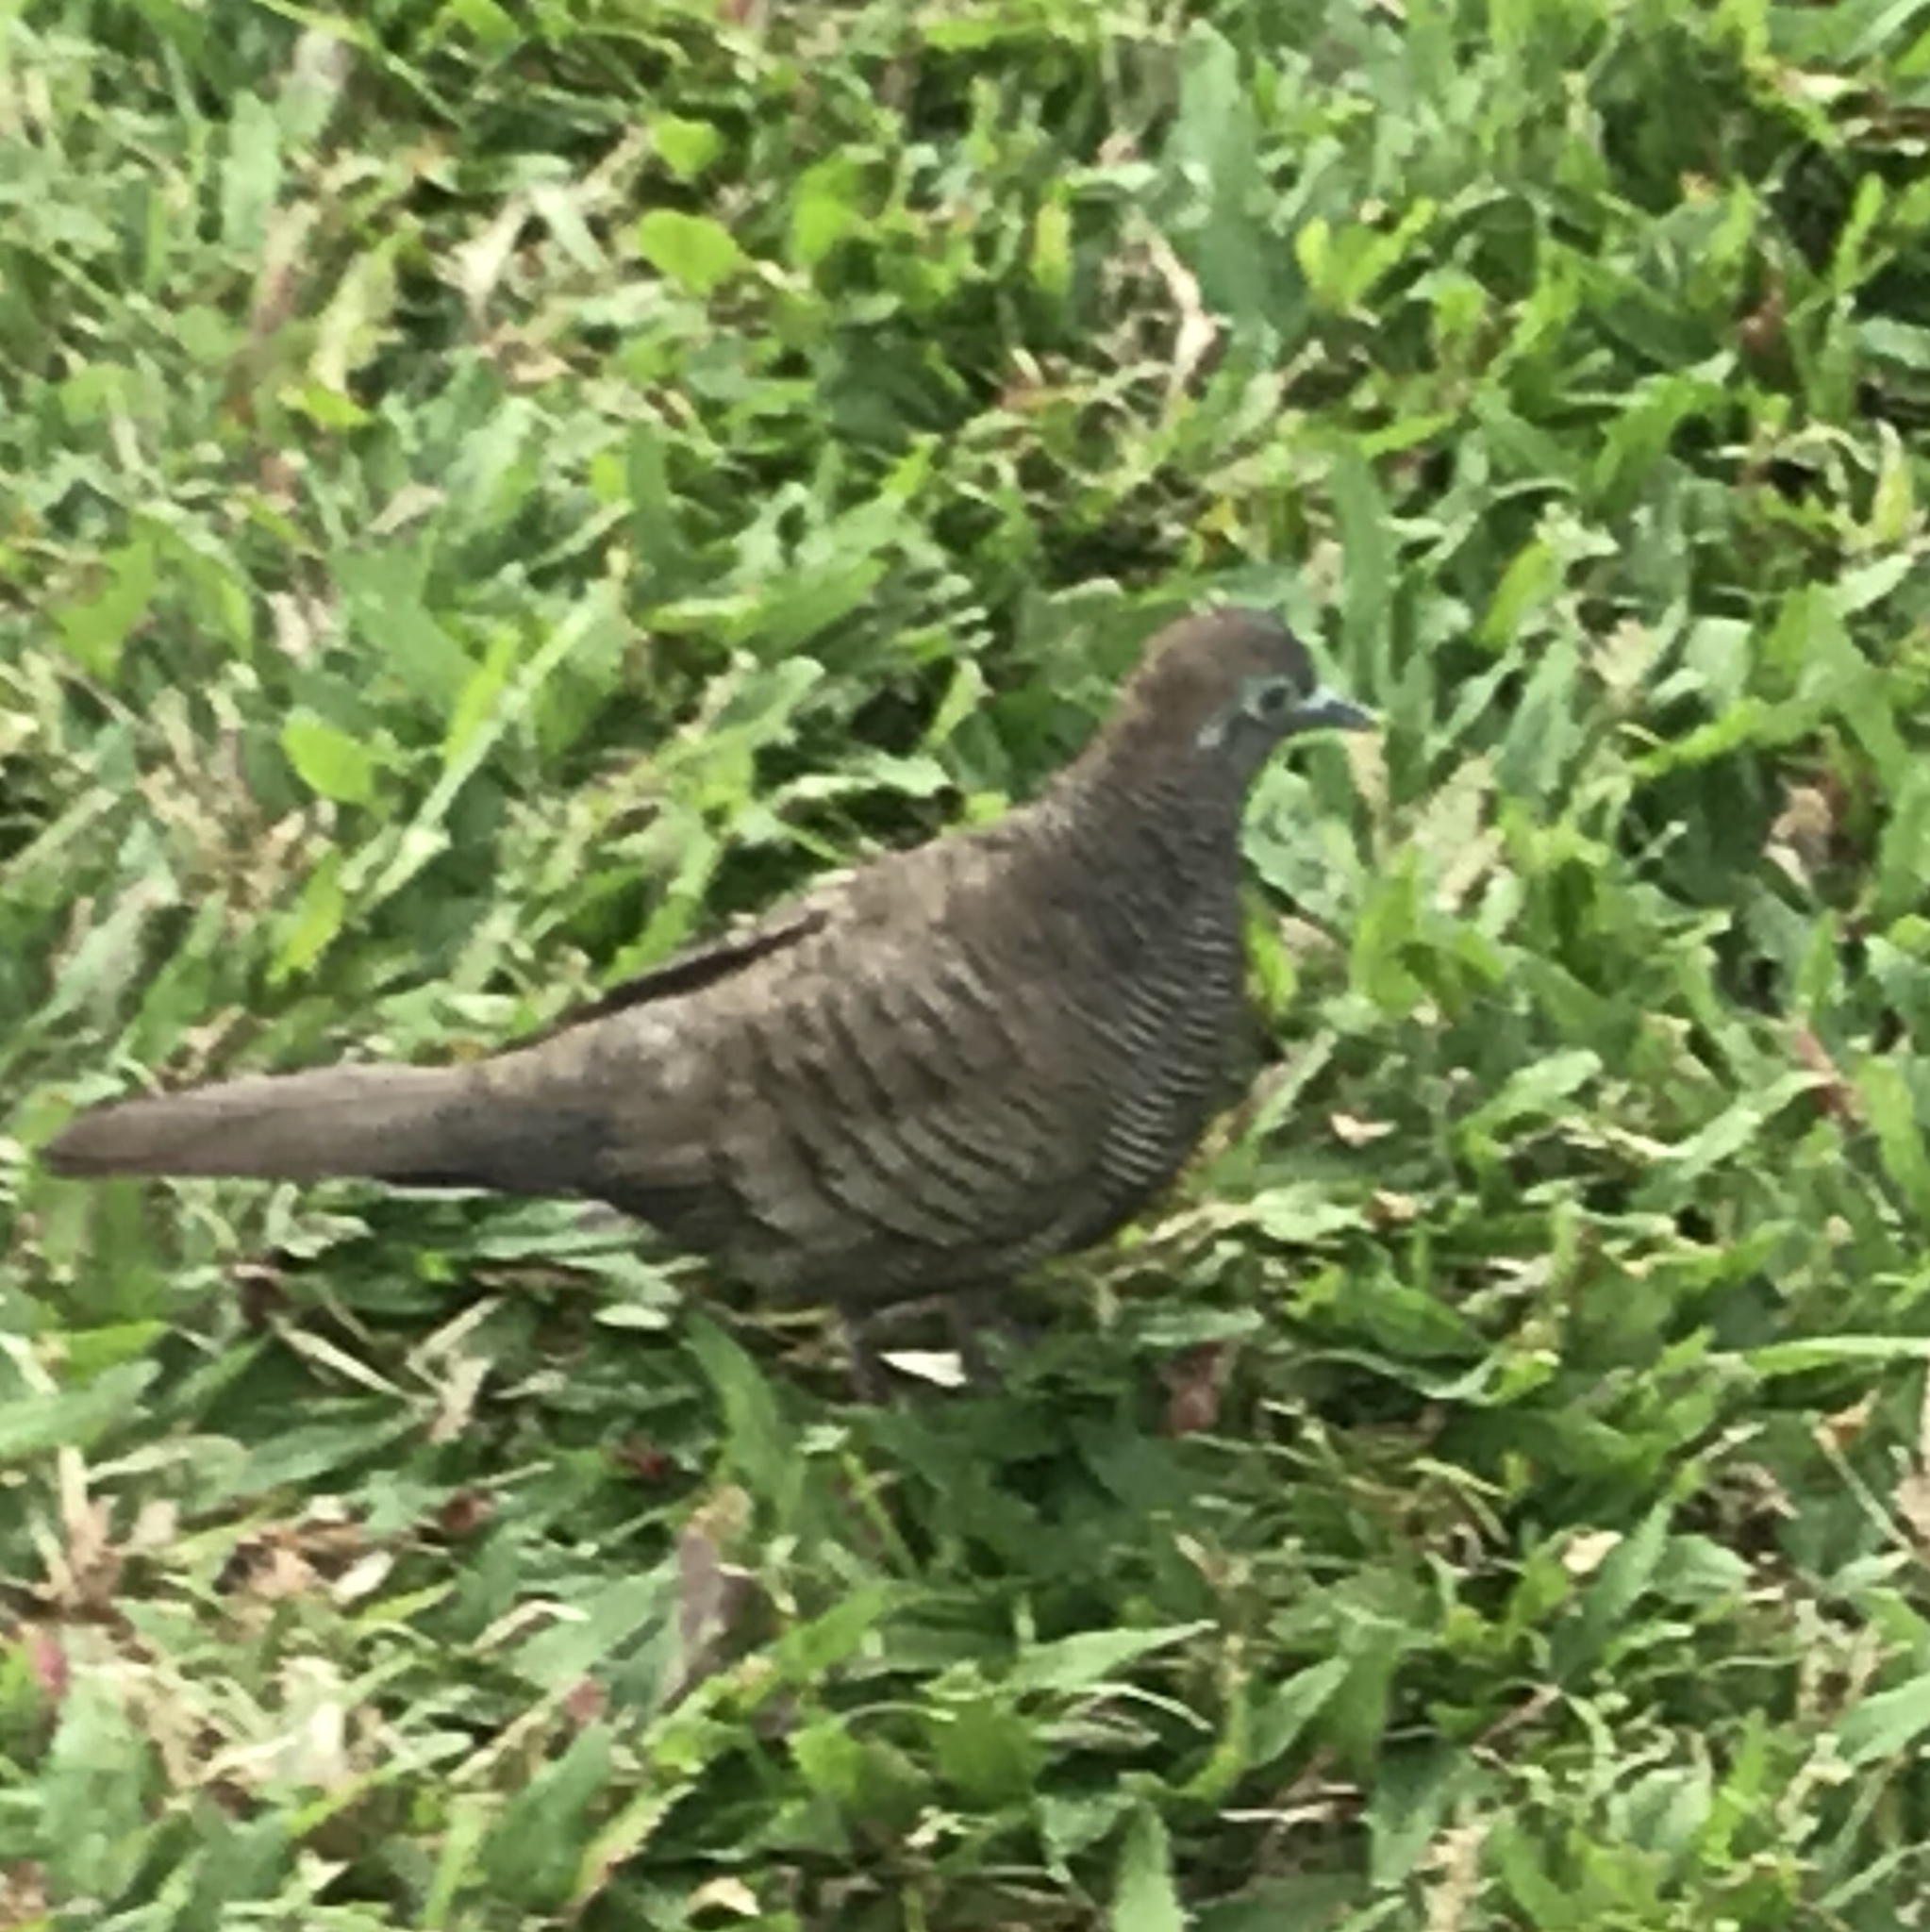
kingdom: Animalia
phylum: Chordata
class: Aves
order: Columbiformes
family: Columbidae
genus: Geopelia
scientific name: Geopelia striata
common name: Zebra dove
